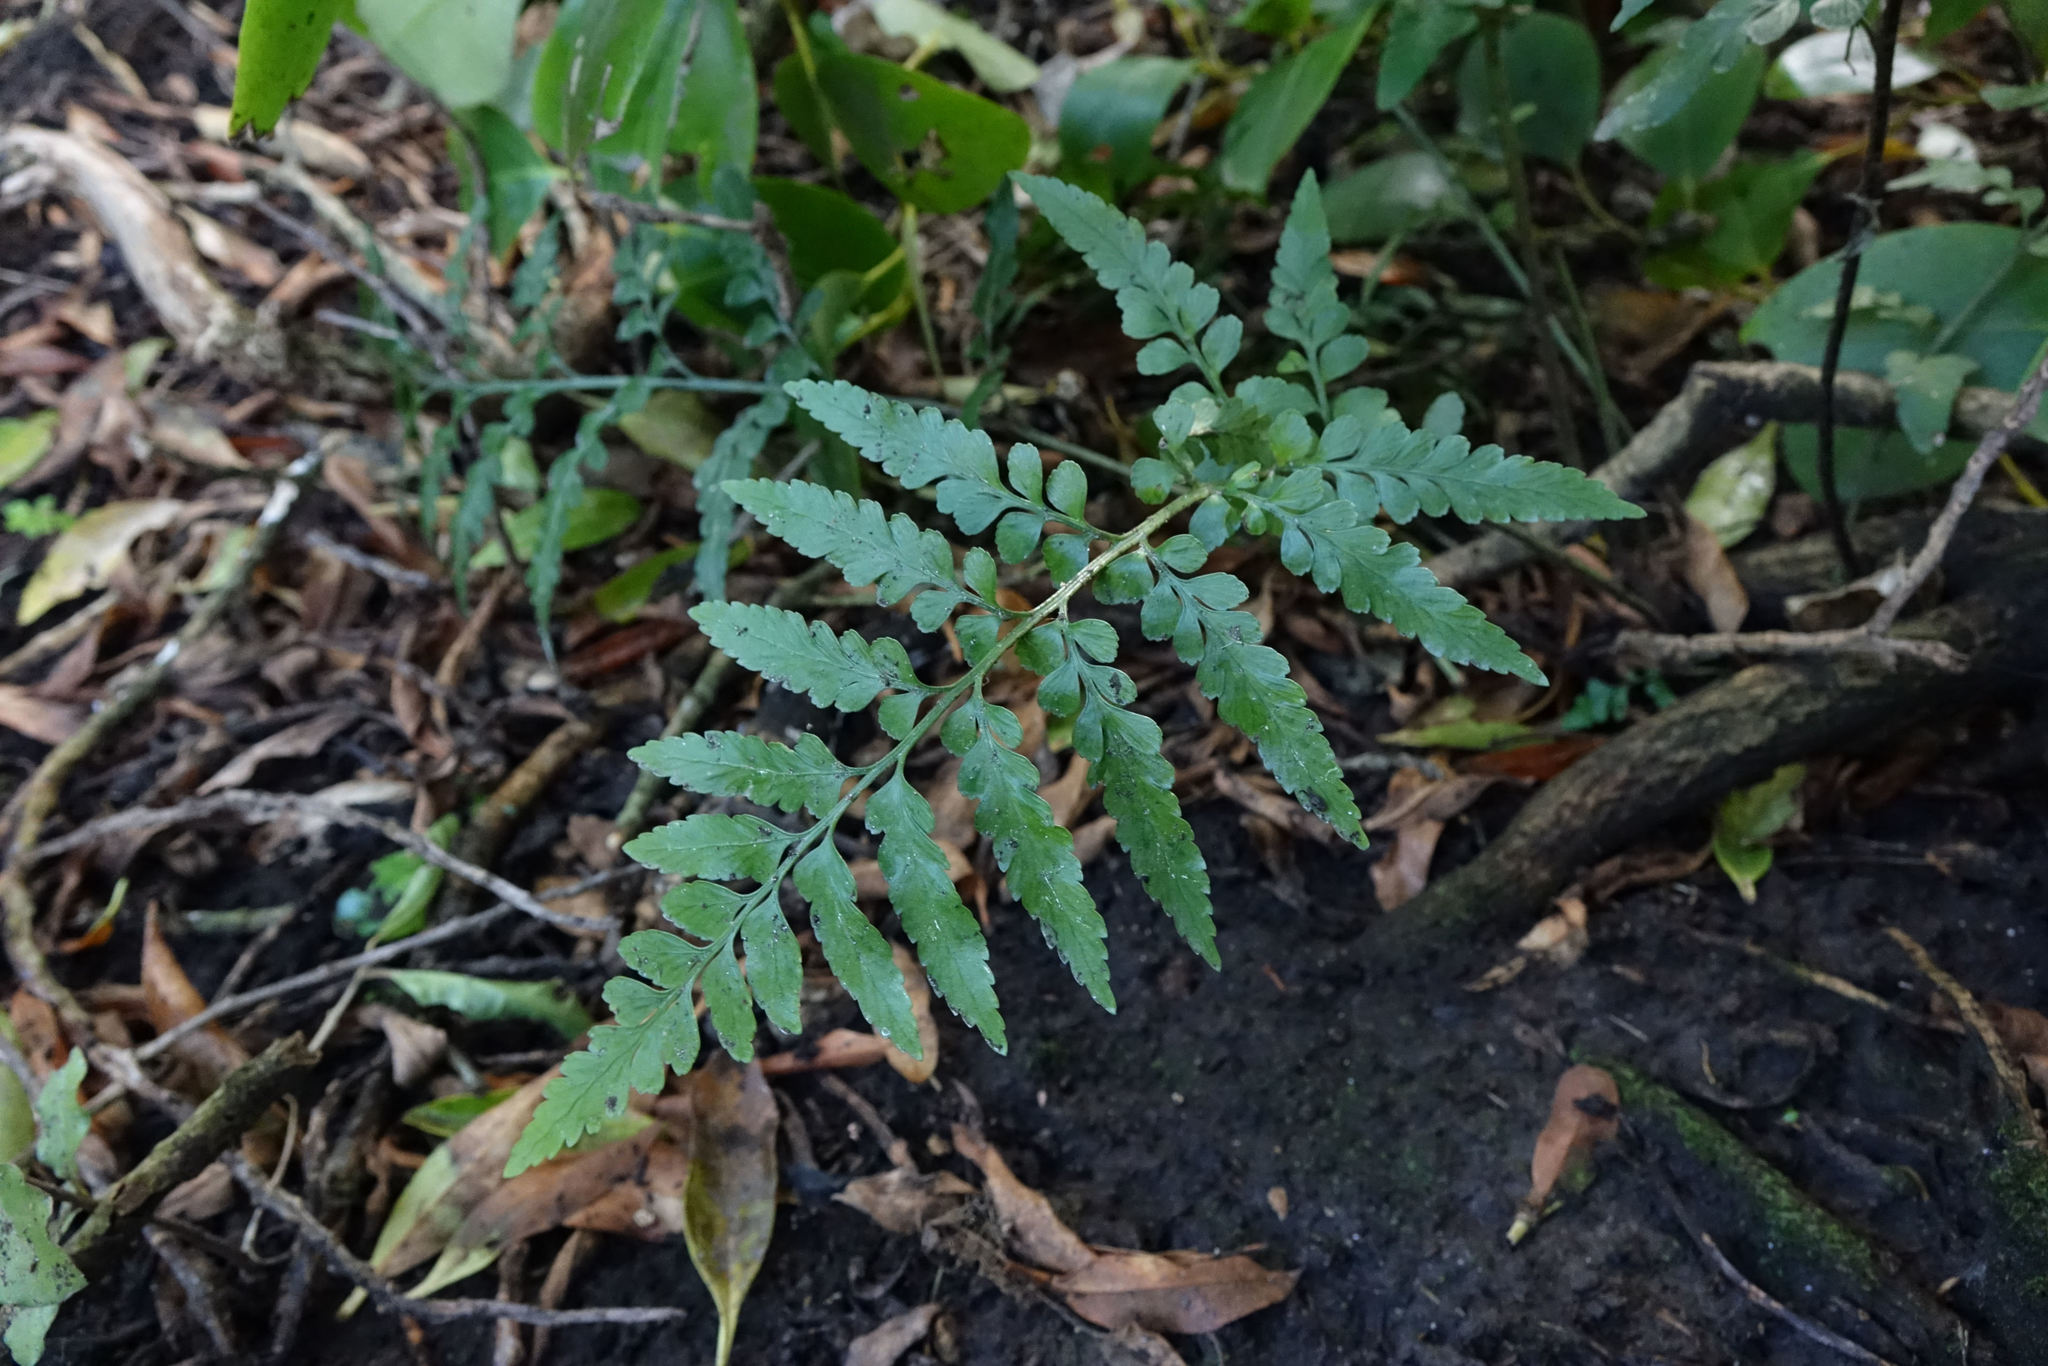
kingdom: Plantae
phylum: Tracheophyta
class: Polypodiopsida
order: Polypodiales
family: Aspleniaceae
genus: Asplenium
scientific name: Asplenium lyallii
